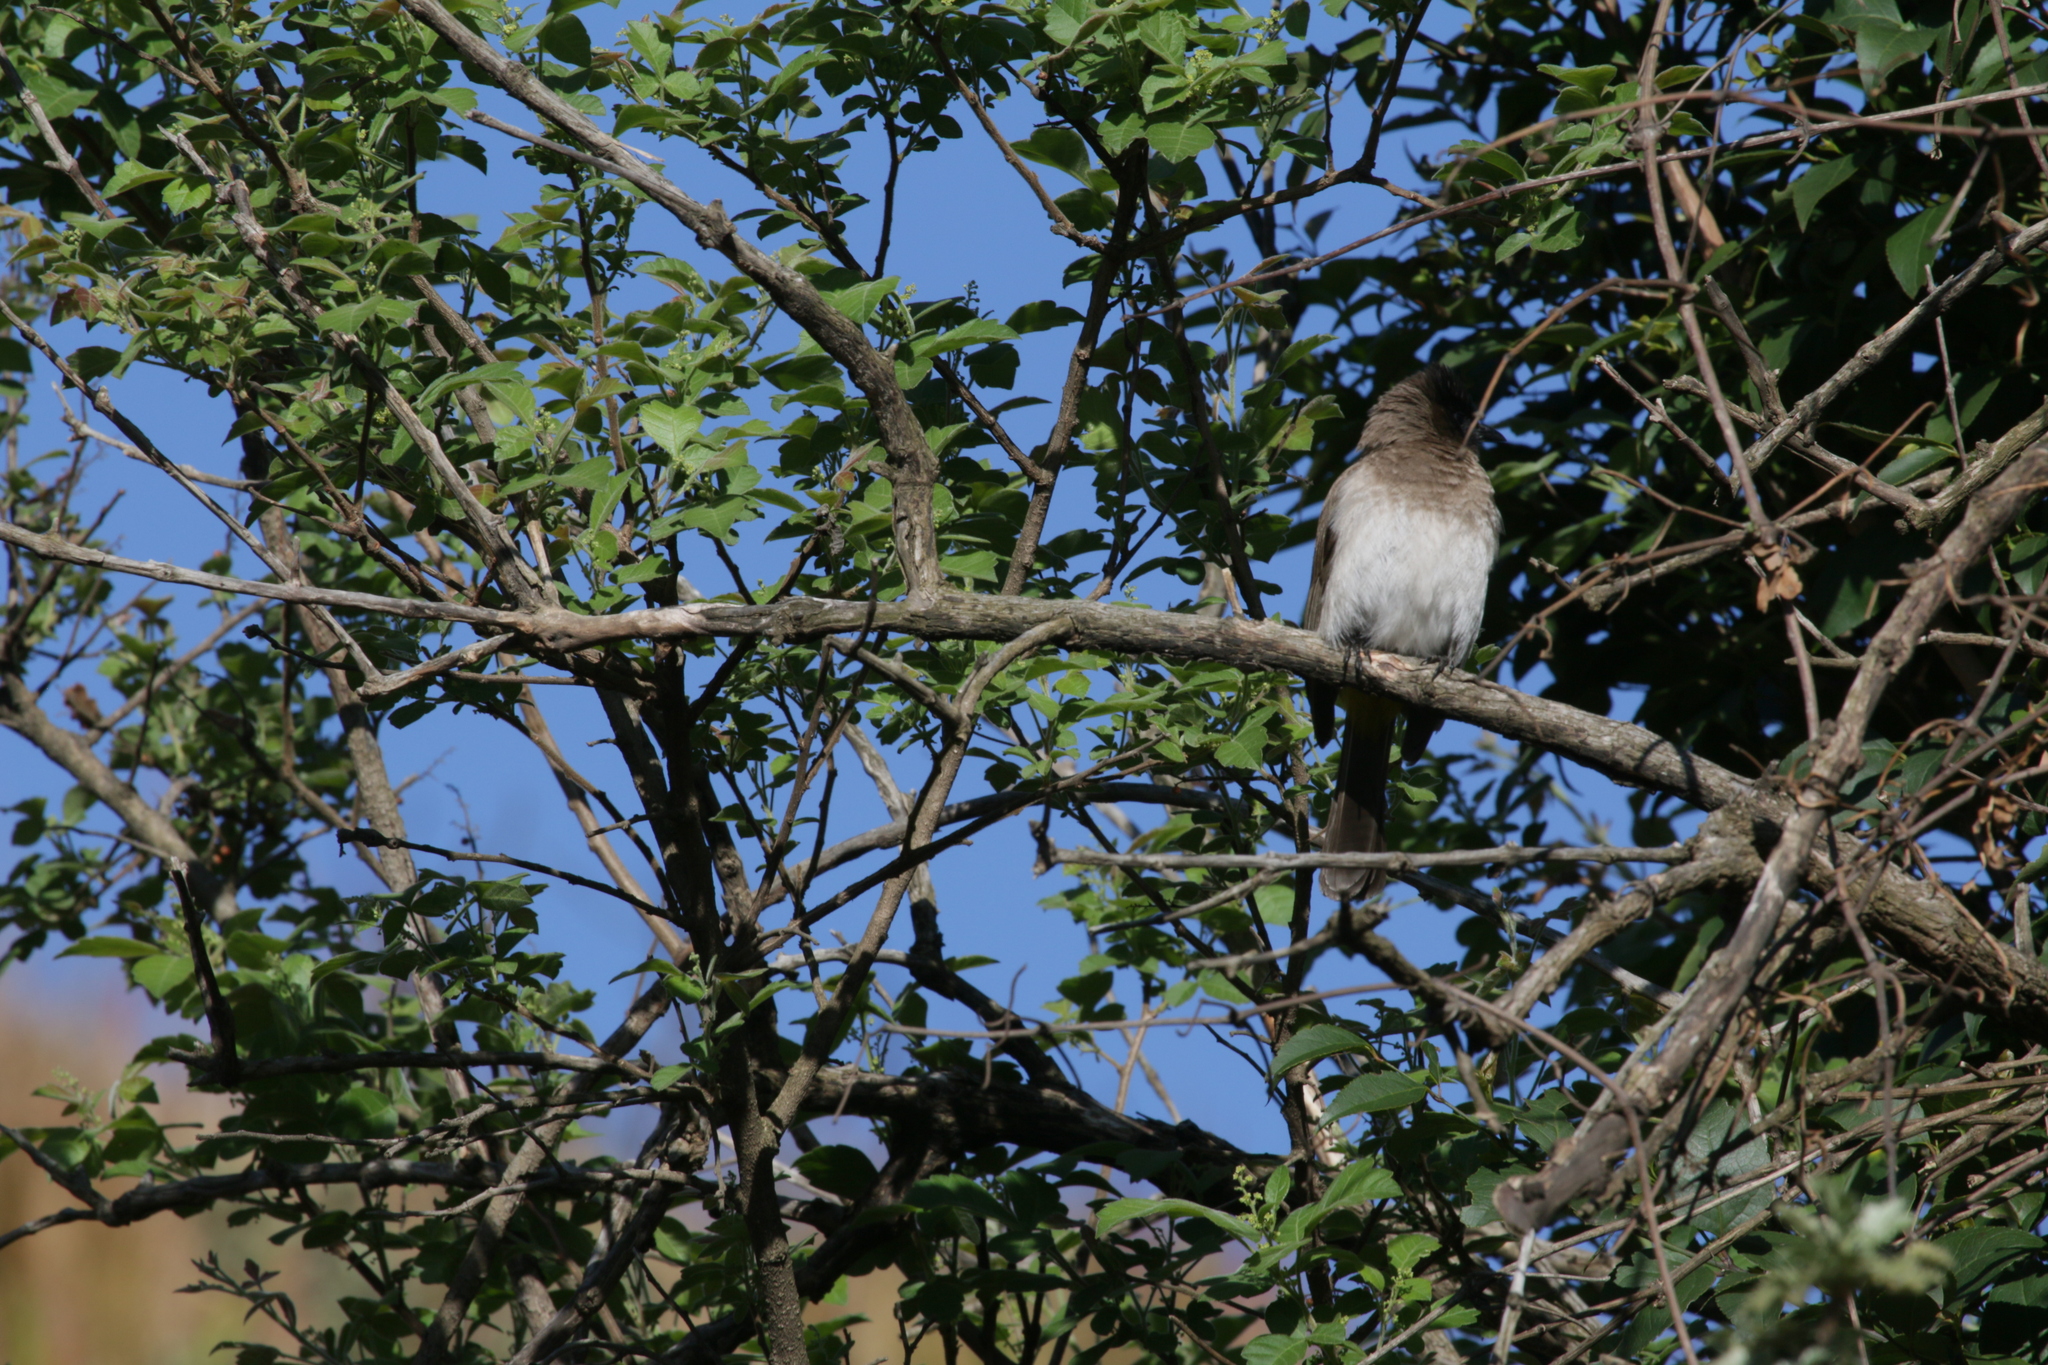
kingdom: Animalia
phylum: Chordata
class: Aves
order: Passeriformes
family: Pycnonotidae
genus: Pycnonotus
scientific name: Pycnonotus barbatus
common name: Common bulbul
